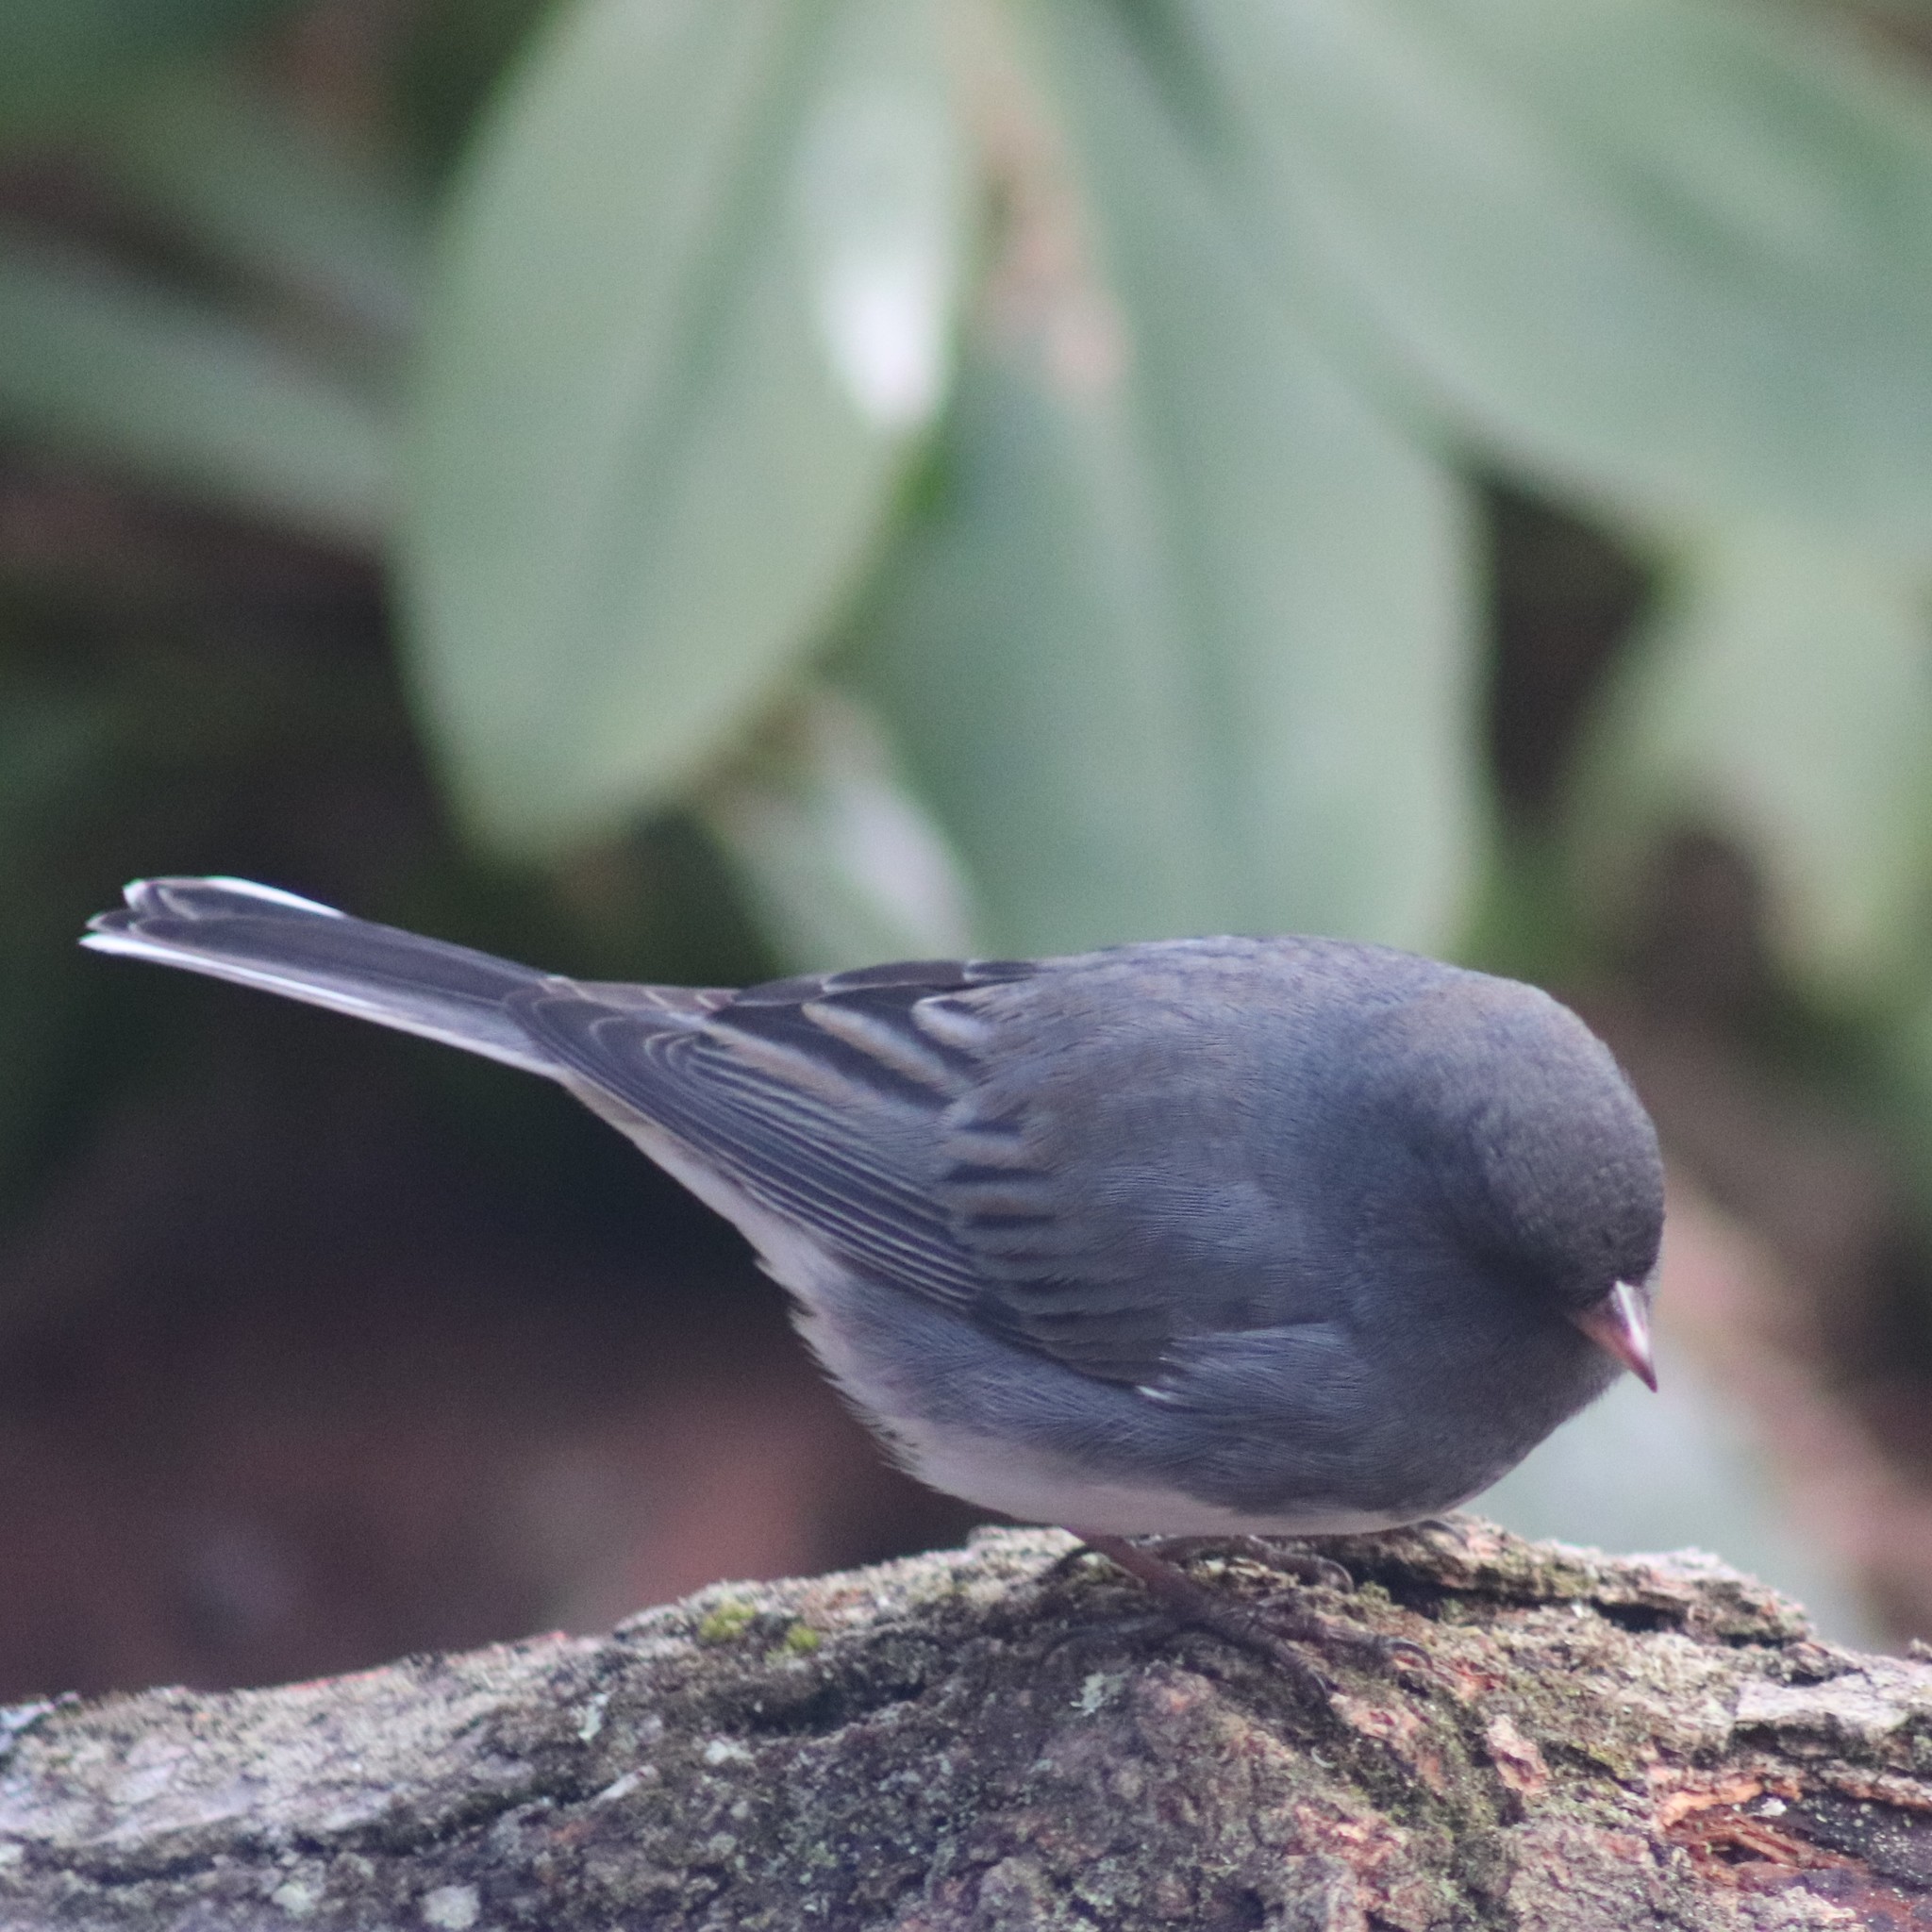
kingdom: Animalia
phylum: Chordata
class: Aves
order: Passeriformes
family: Passerellidae
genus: Junco
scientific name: Junco hyemalis
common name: Dark-eyed junco
